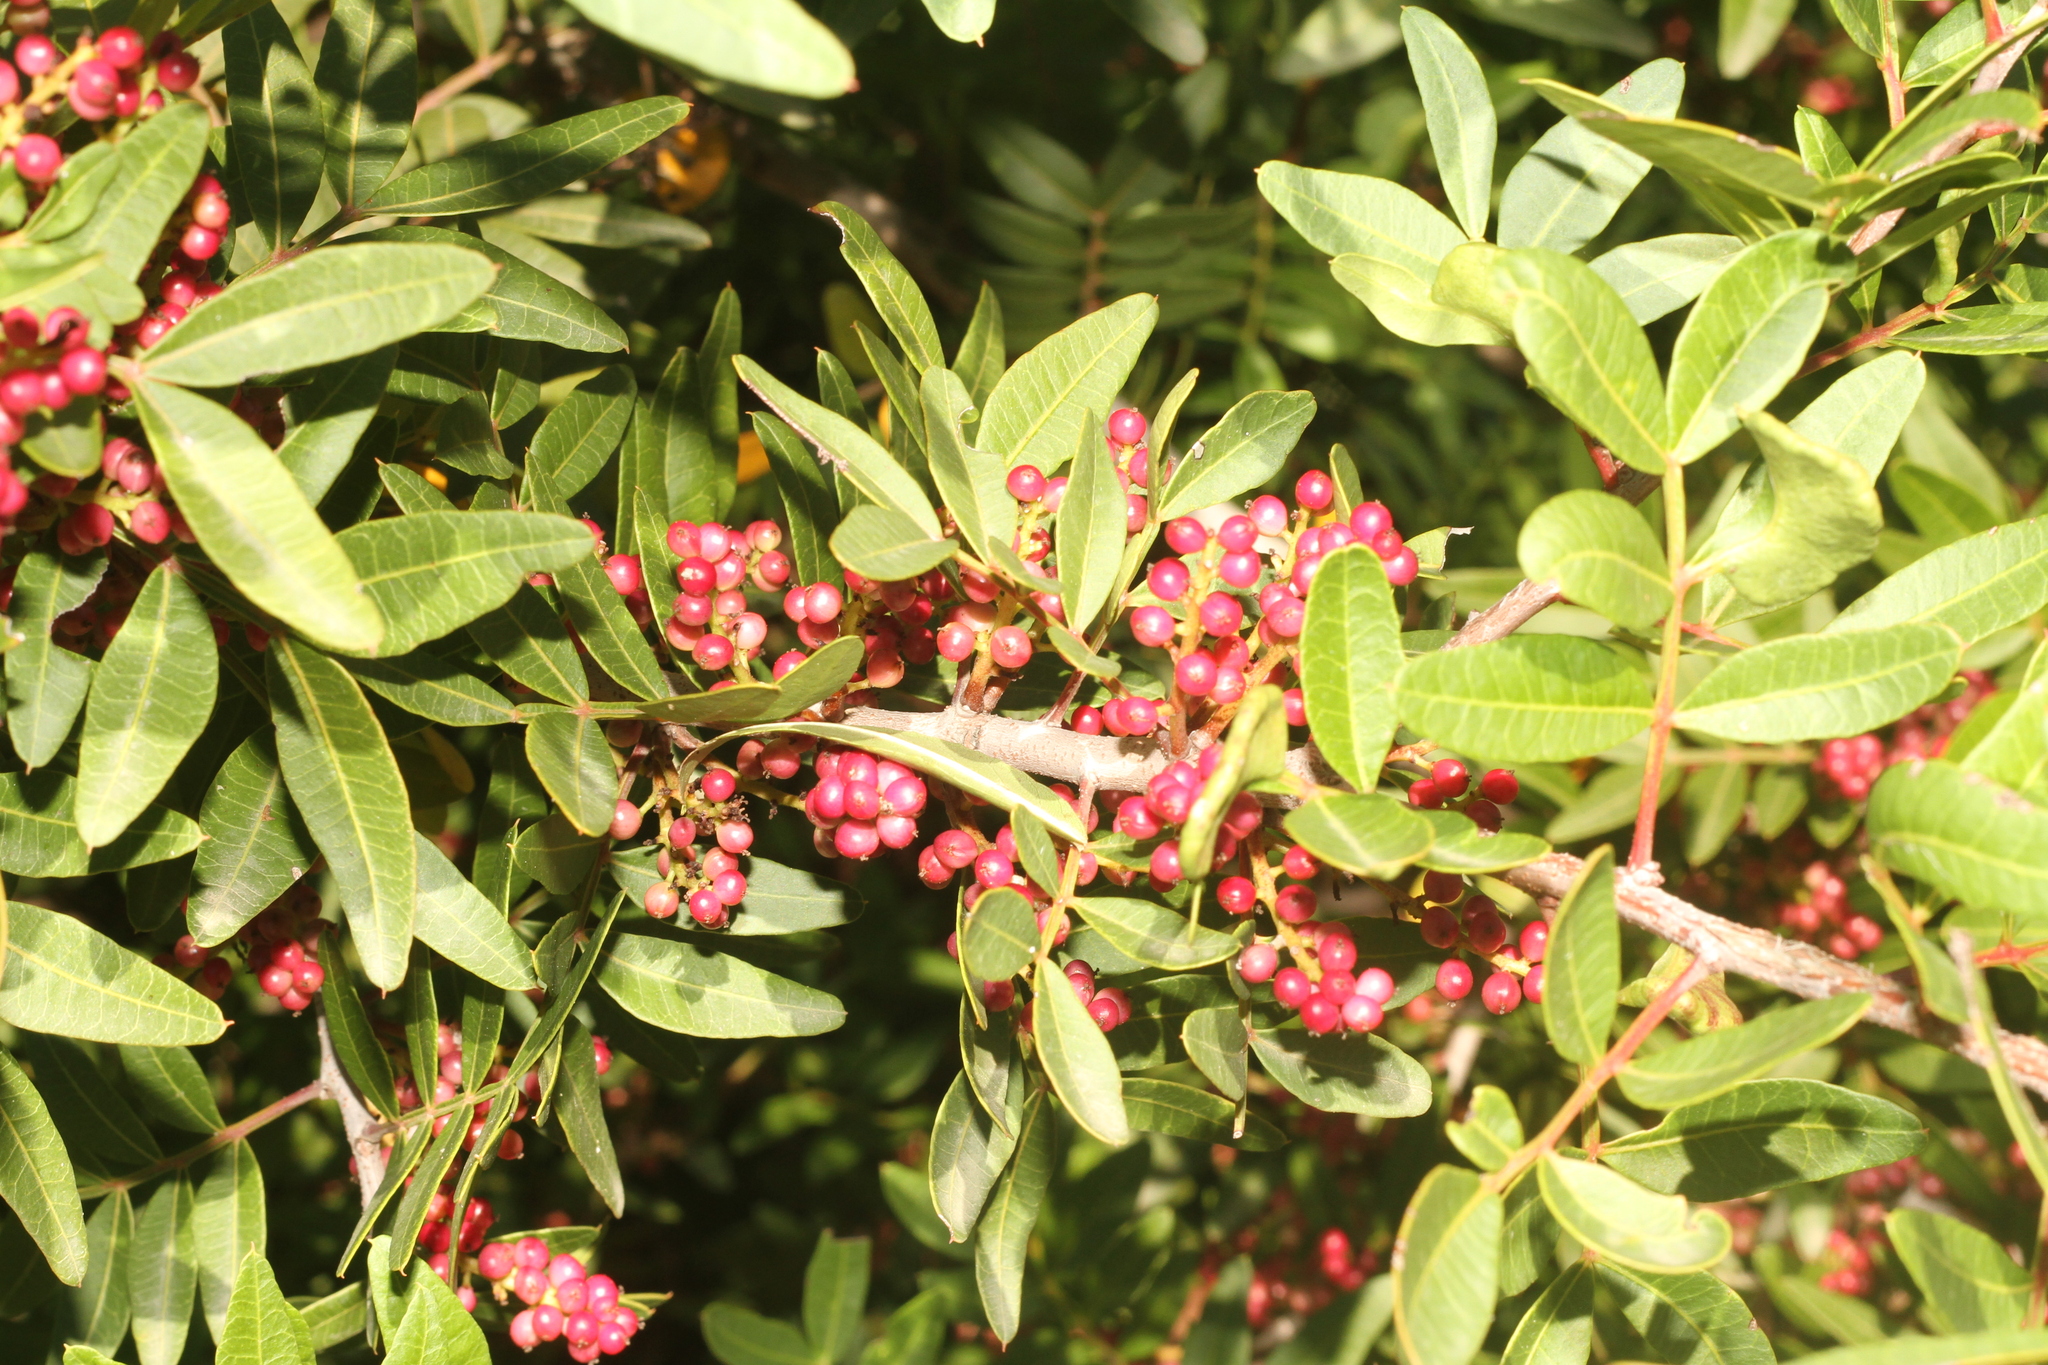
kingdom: Plantae
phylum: Tracheophyta
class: Magnoliopsida
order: Sapindales
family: Anacardiaceae
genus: Pistacia
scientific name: Pistacia lentiscus
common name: Lentisk
